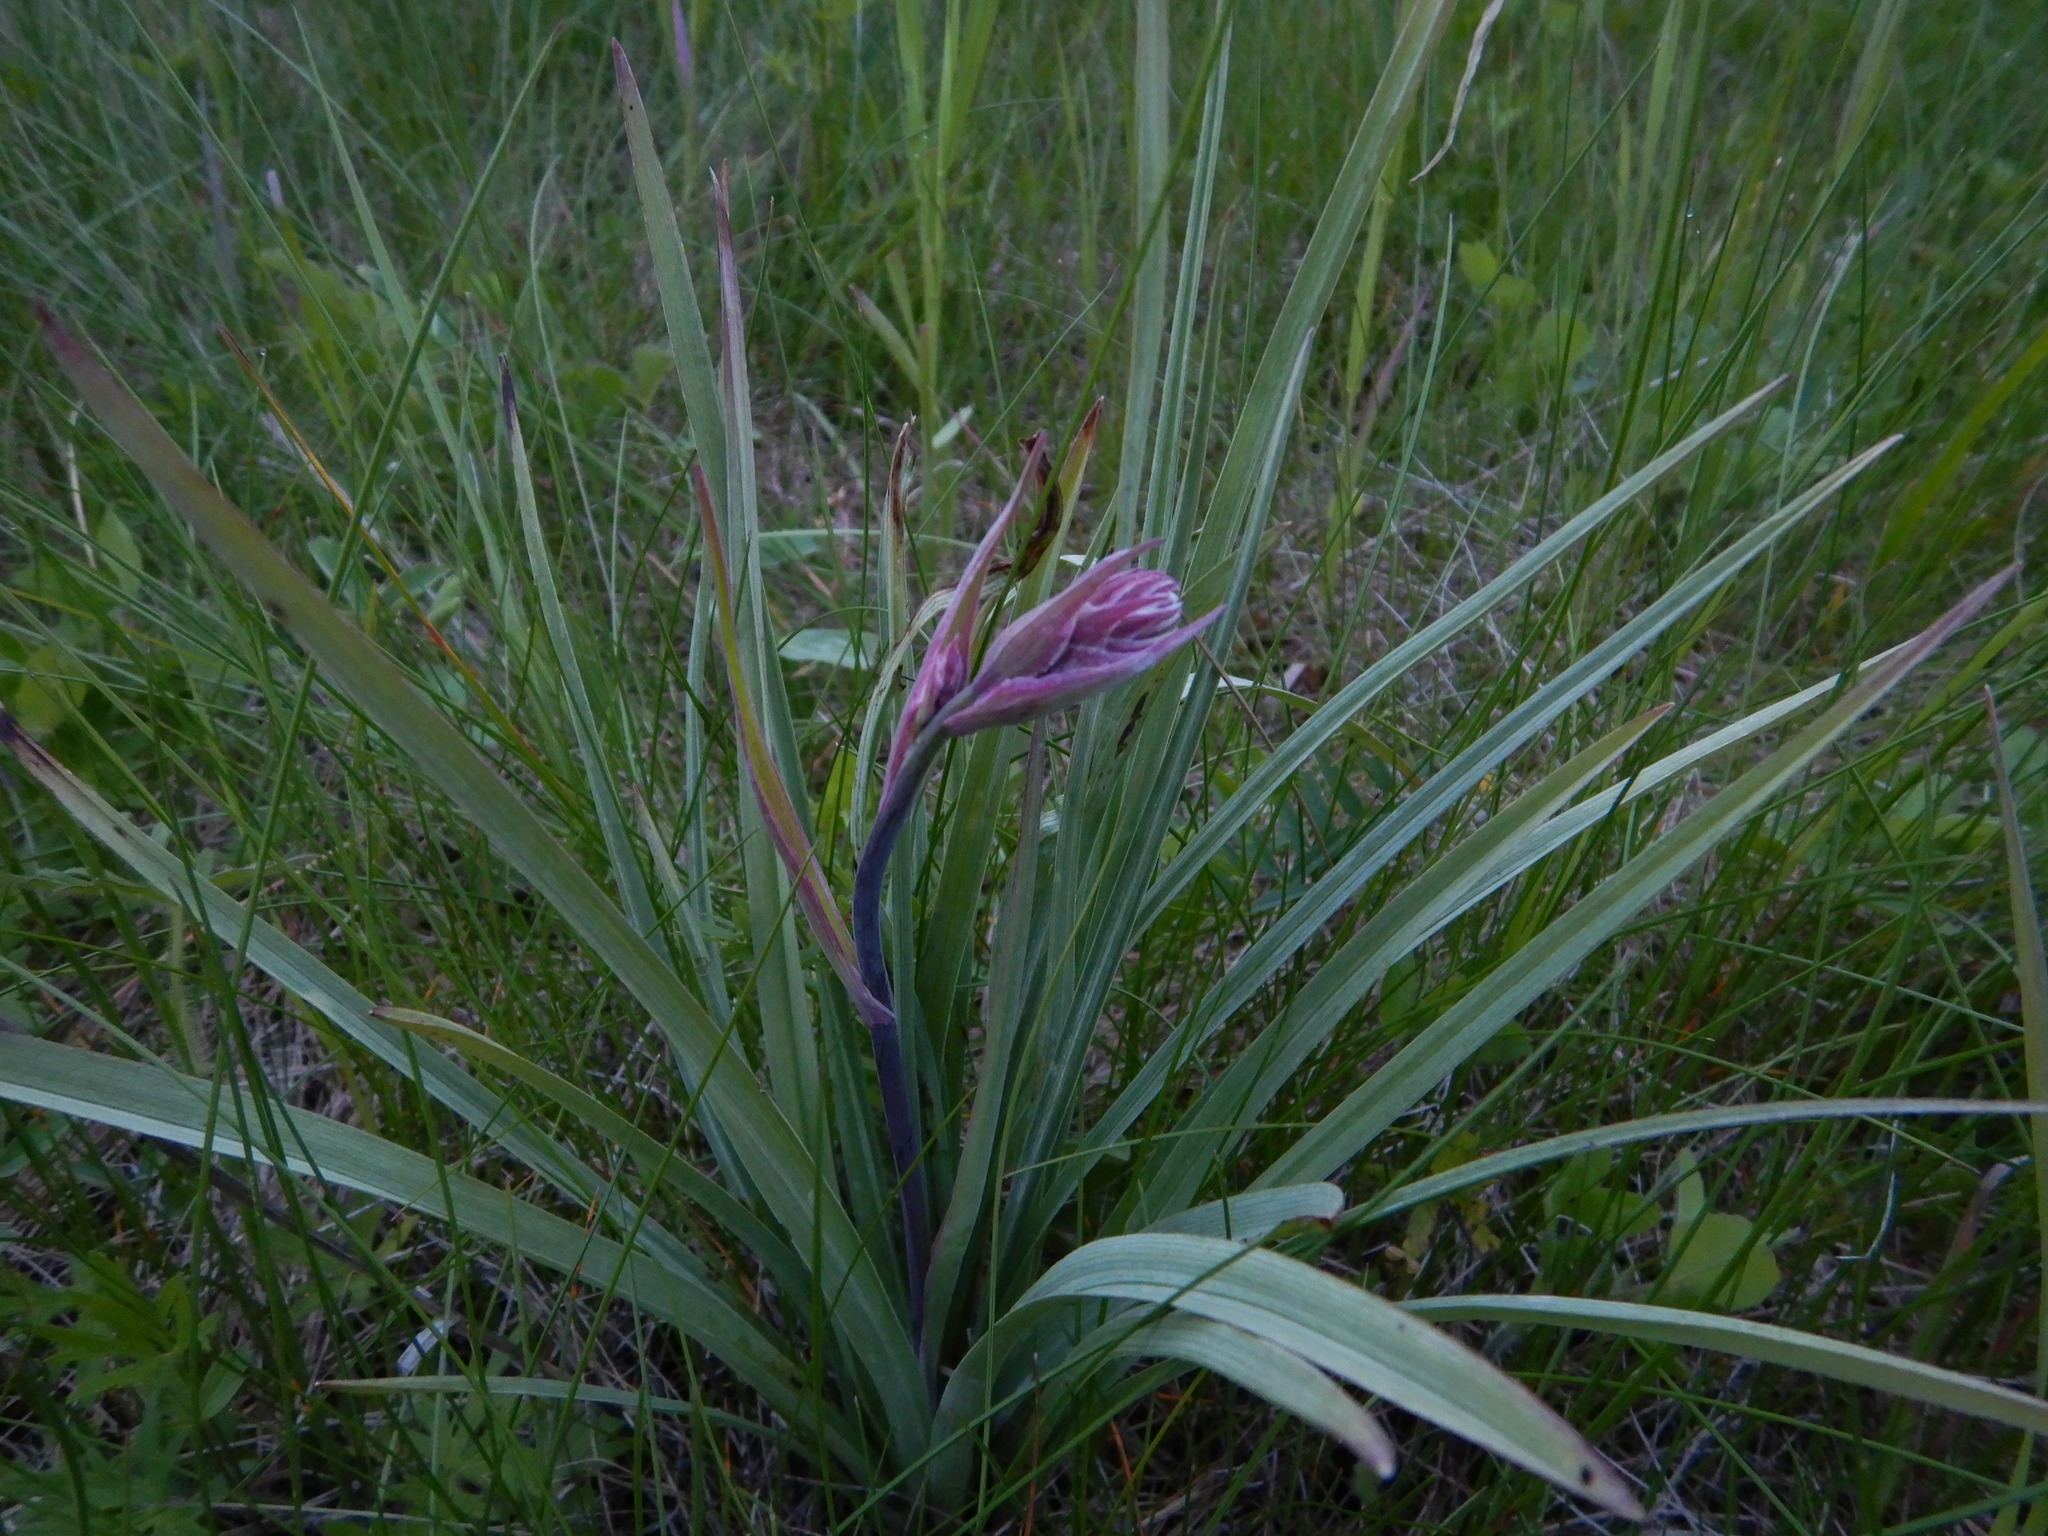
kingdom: Plantae
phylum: Tracheophyta
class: Liliopsida
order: Liliales
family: Melanthiaceae
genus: Anticlea
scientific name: Anticlea elegans
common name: Mountain death camas
